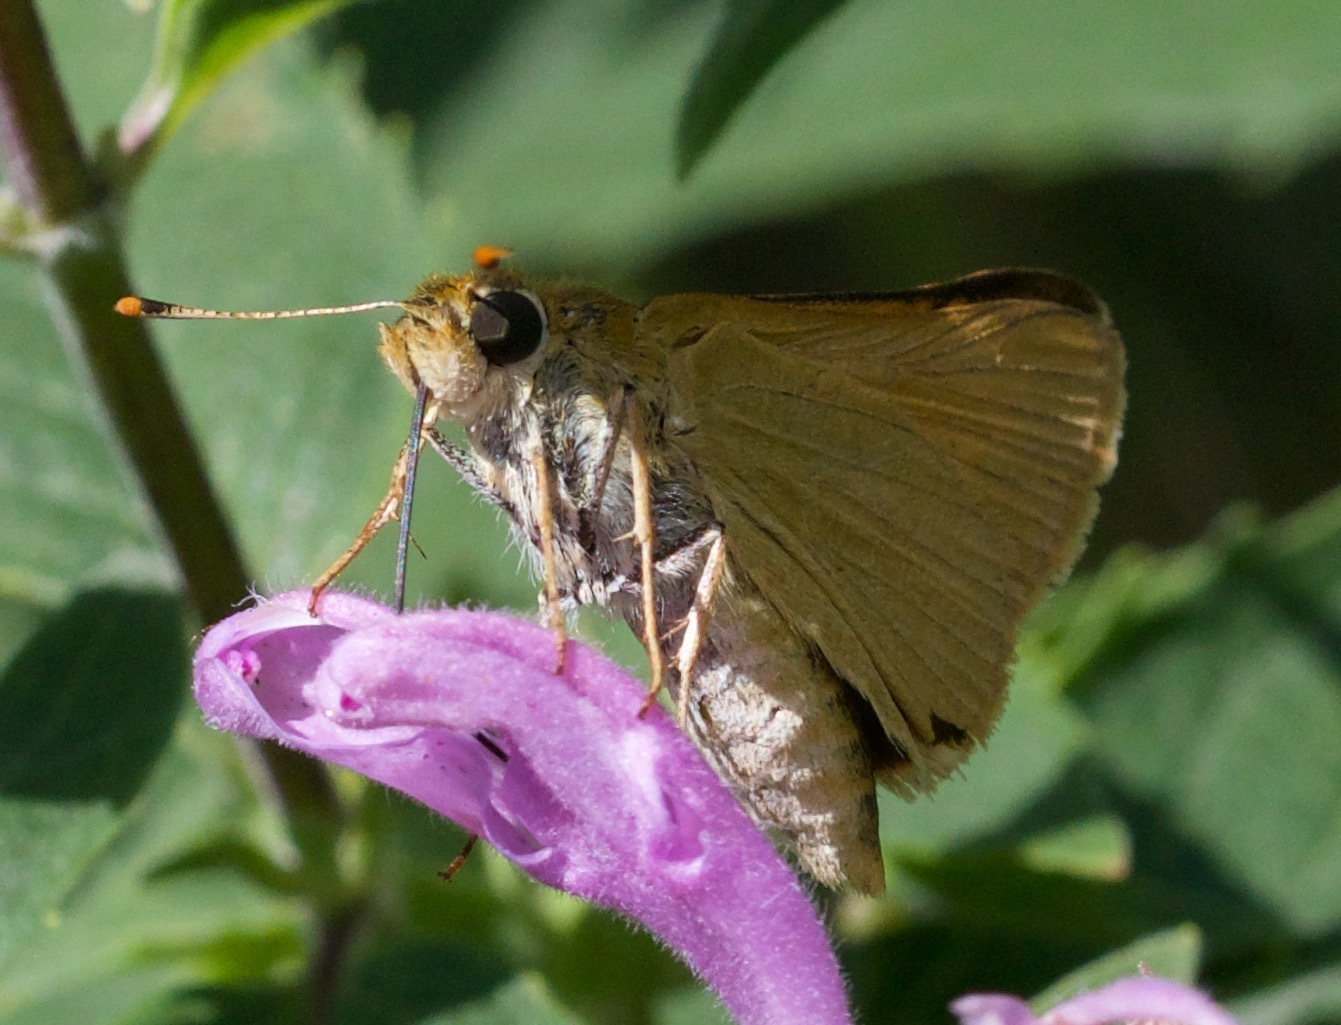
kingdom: Animalia
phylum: Arthropoda
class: Insecta
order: Lepidoptera
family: Hesperiidae
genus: Atrytone
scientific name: Atrytone delaware
